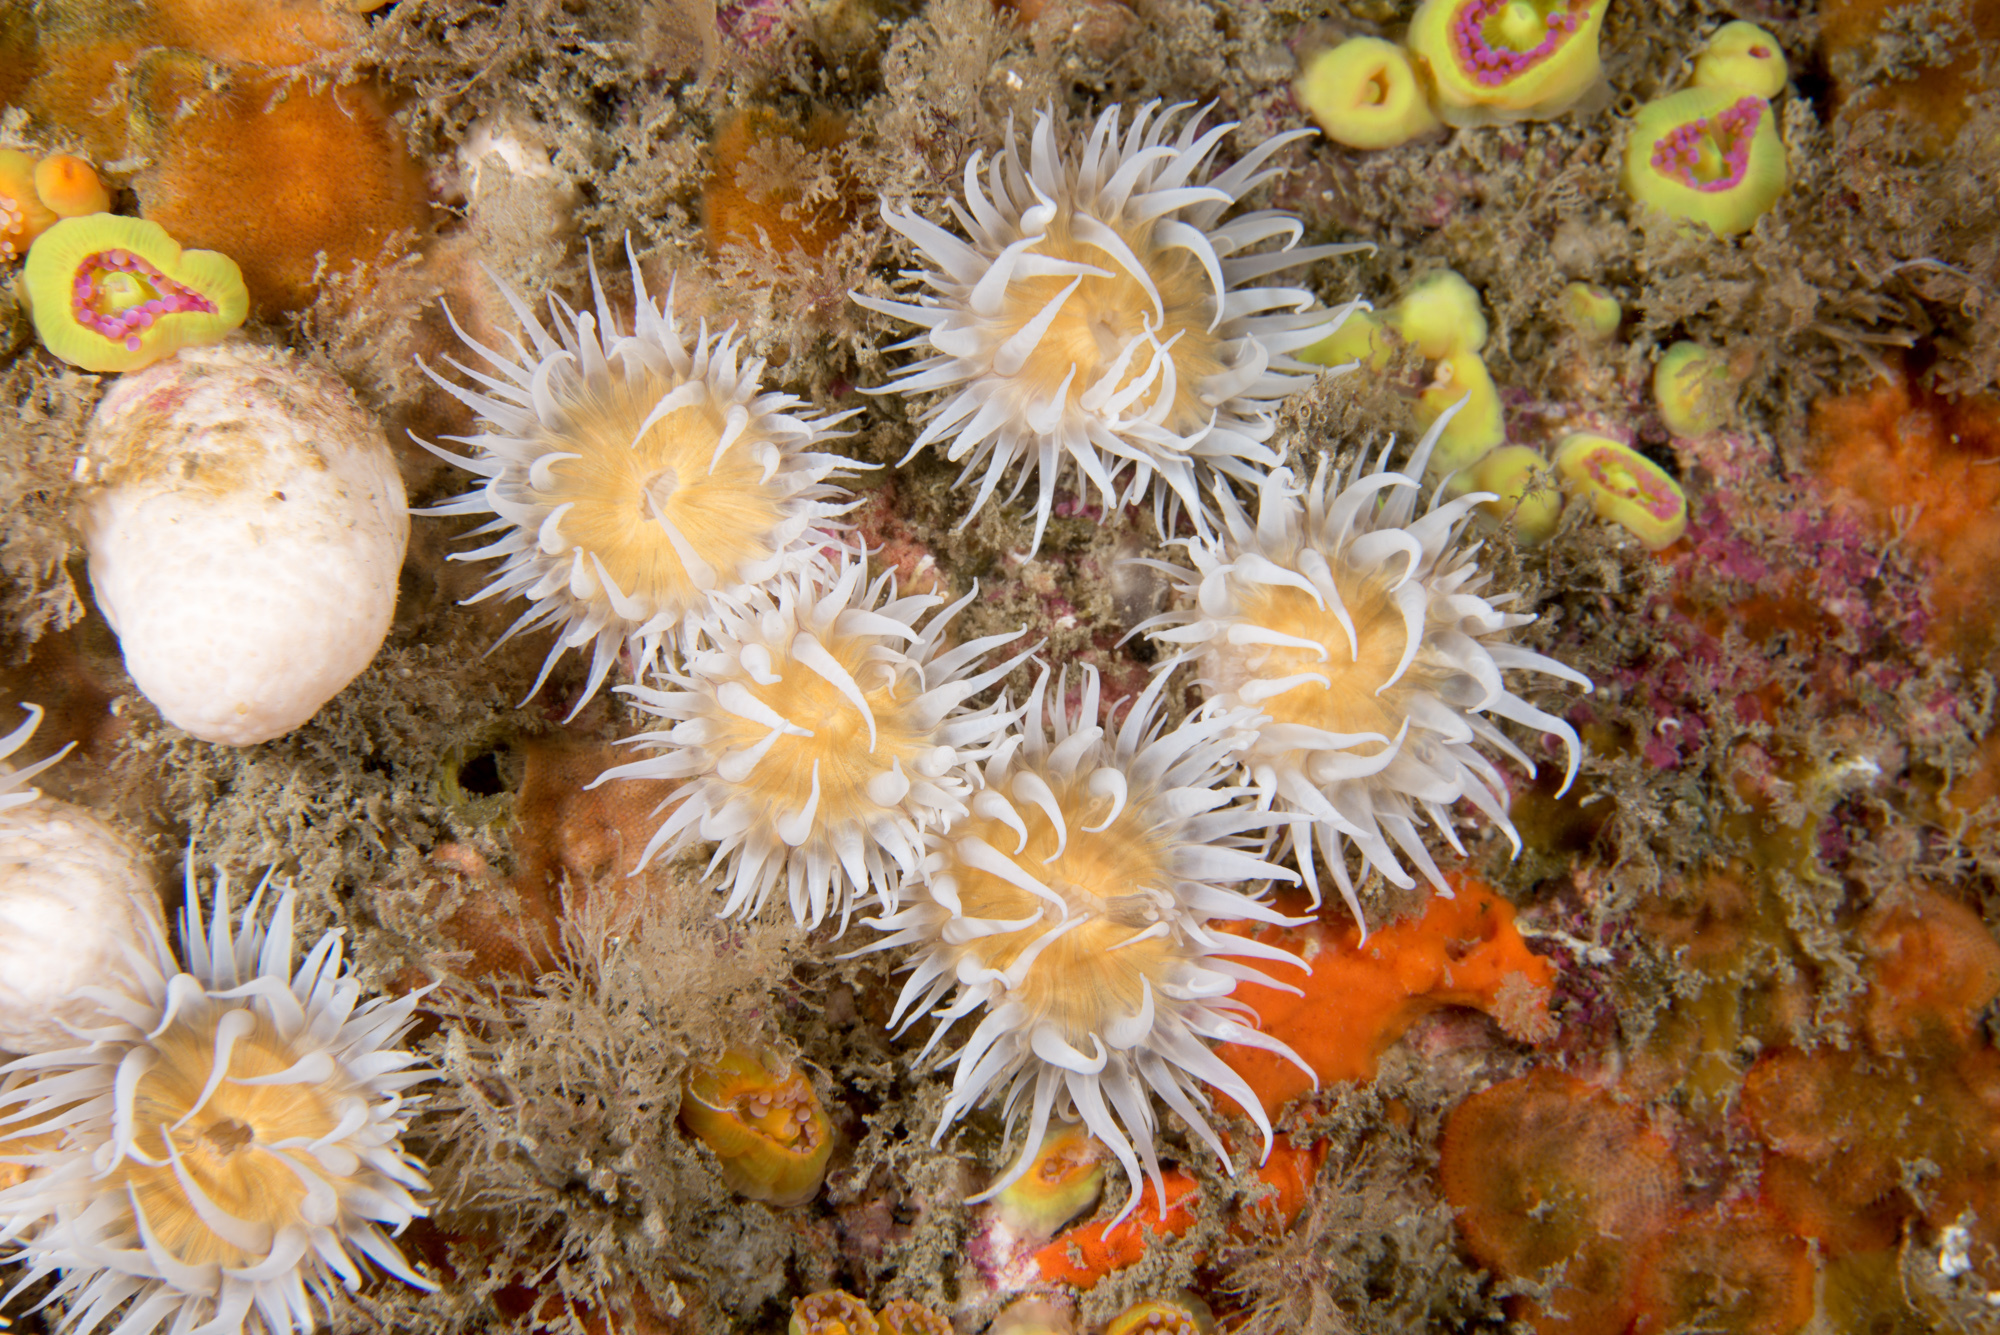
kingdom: Animalia
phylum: Cnidaria
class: Anthozoa
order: Actiniaria
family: Sagartiidae
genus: Actinothoe
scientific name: Actinothoe sphyrodeta
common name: Sandalled anemone
